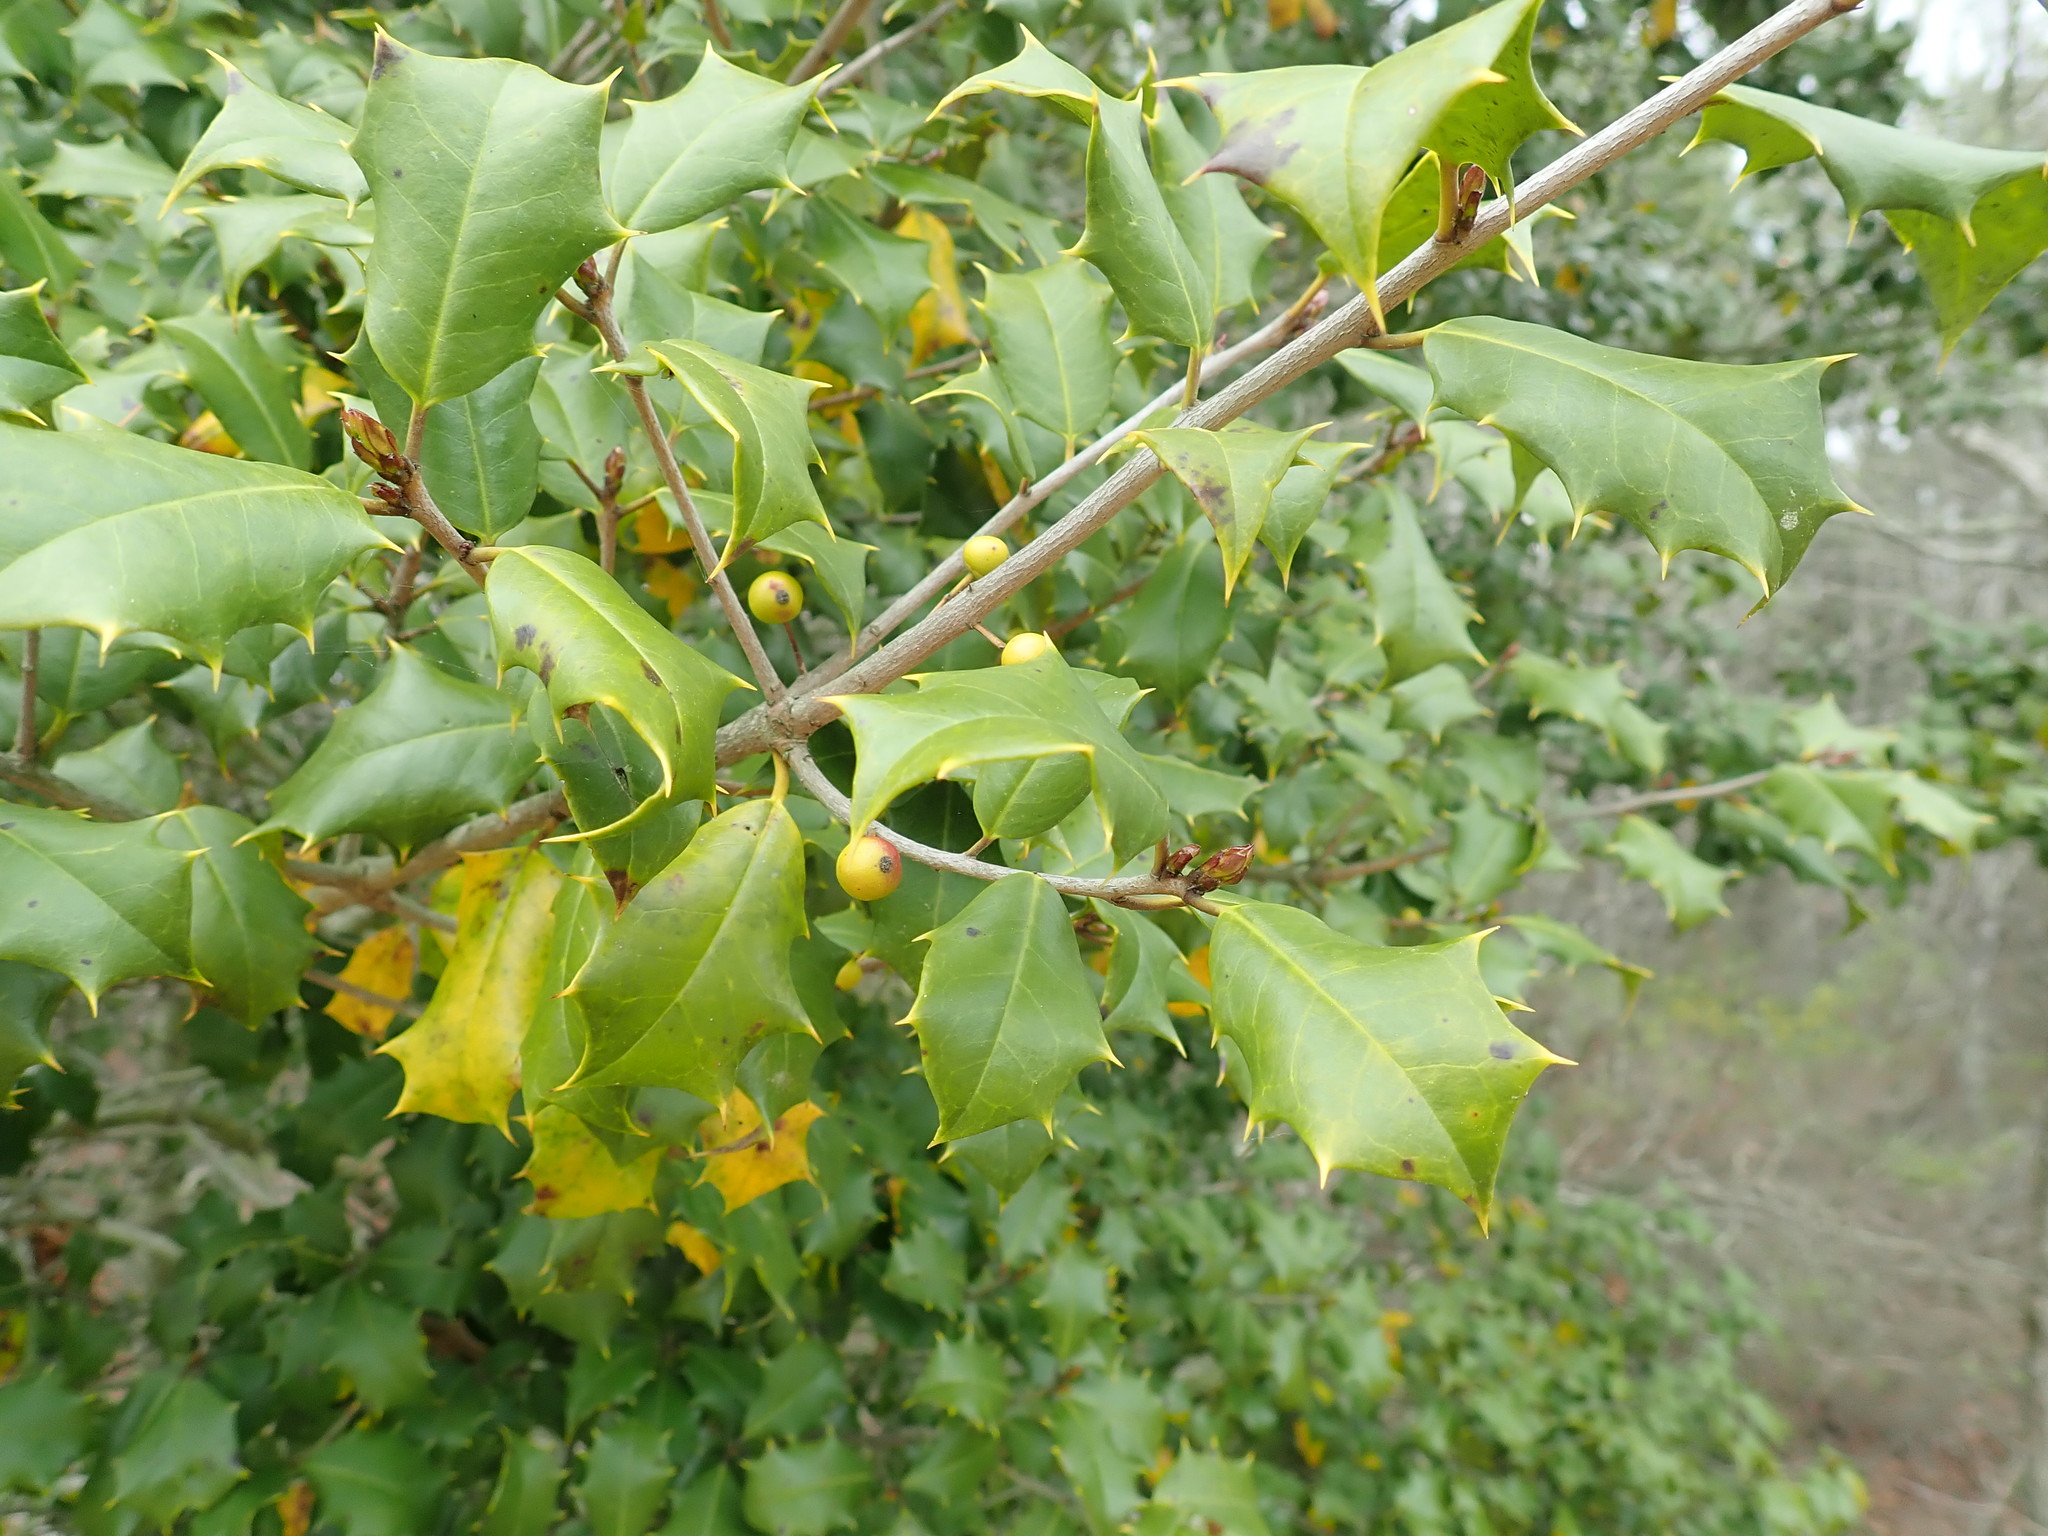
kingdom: Plantae
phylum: Tracheophyta
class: Magnoliopsida
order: Aquifoliales
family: Aquifoliaceae
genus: Ilex
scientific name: Ilex opaca
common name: American holly
